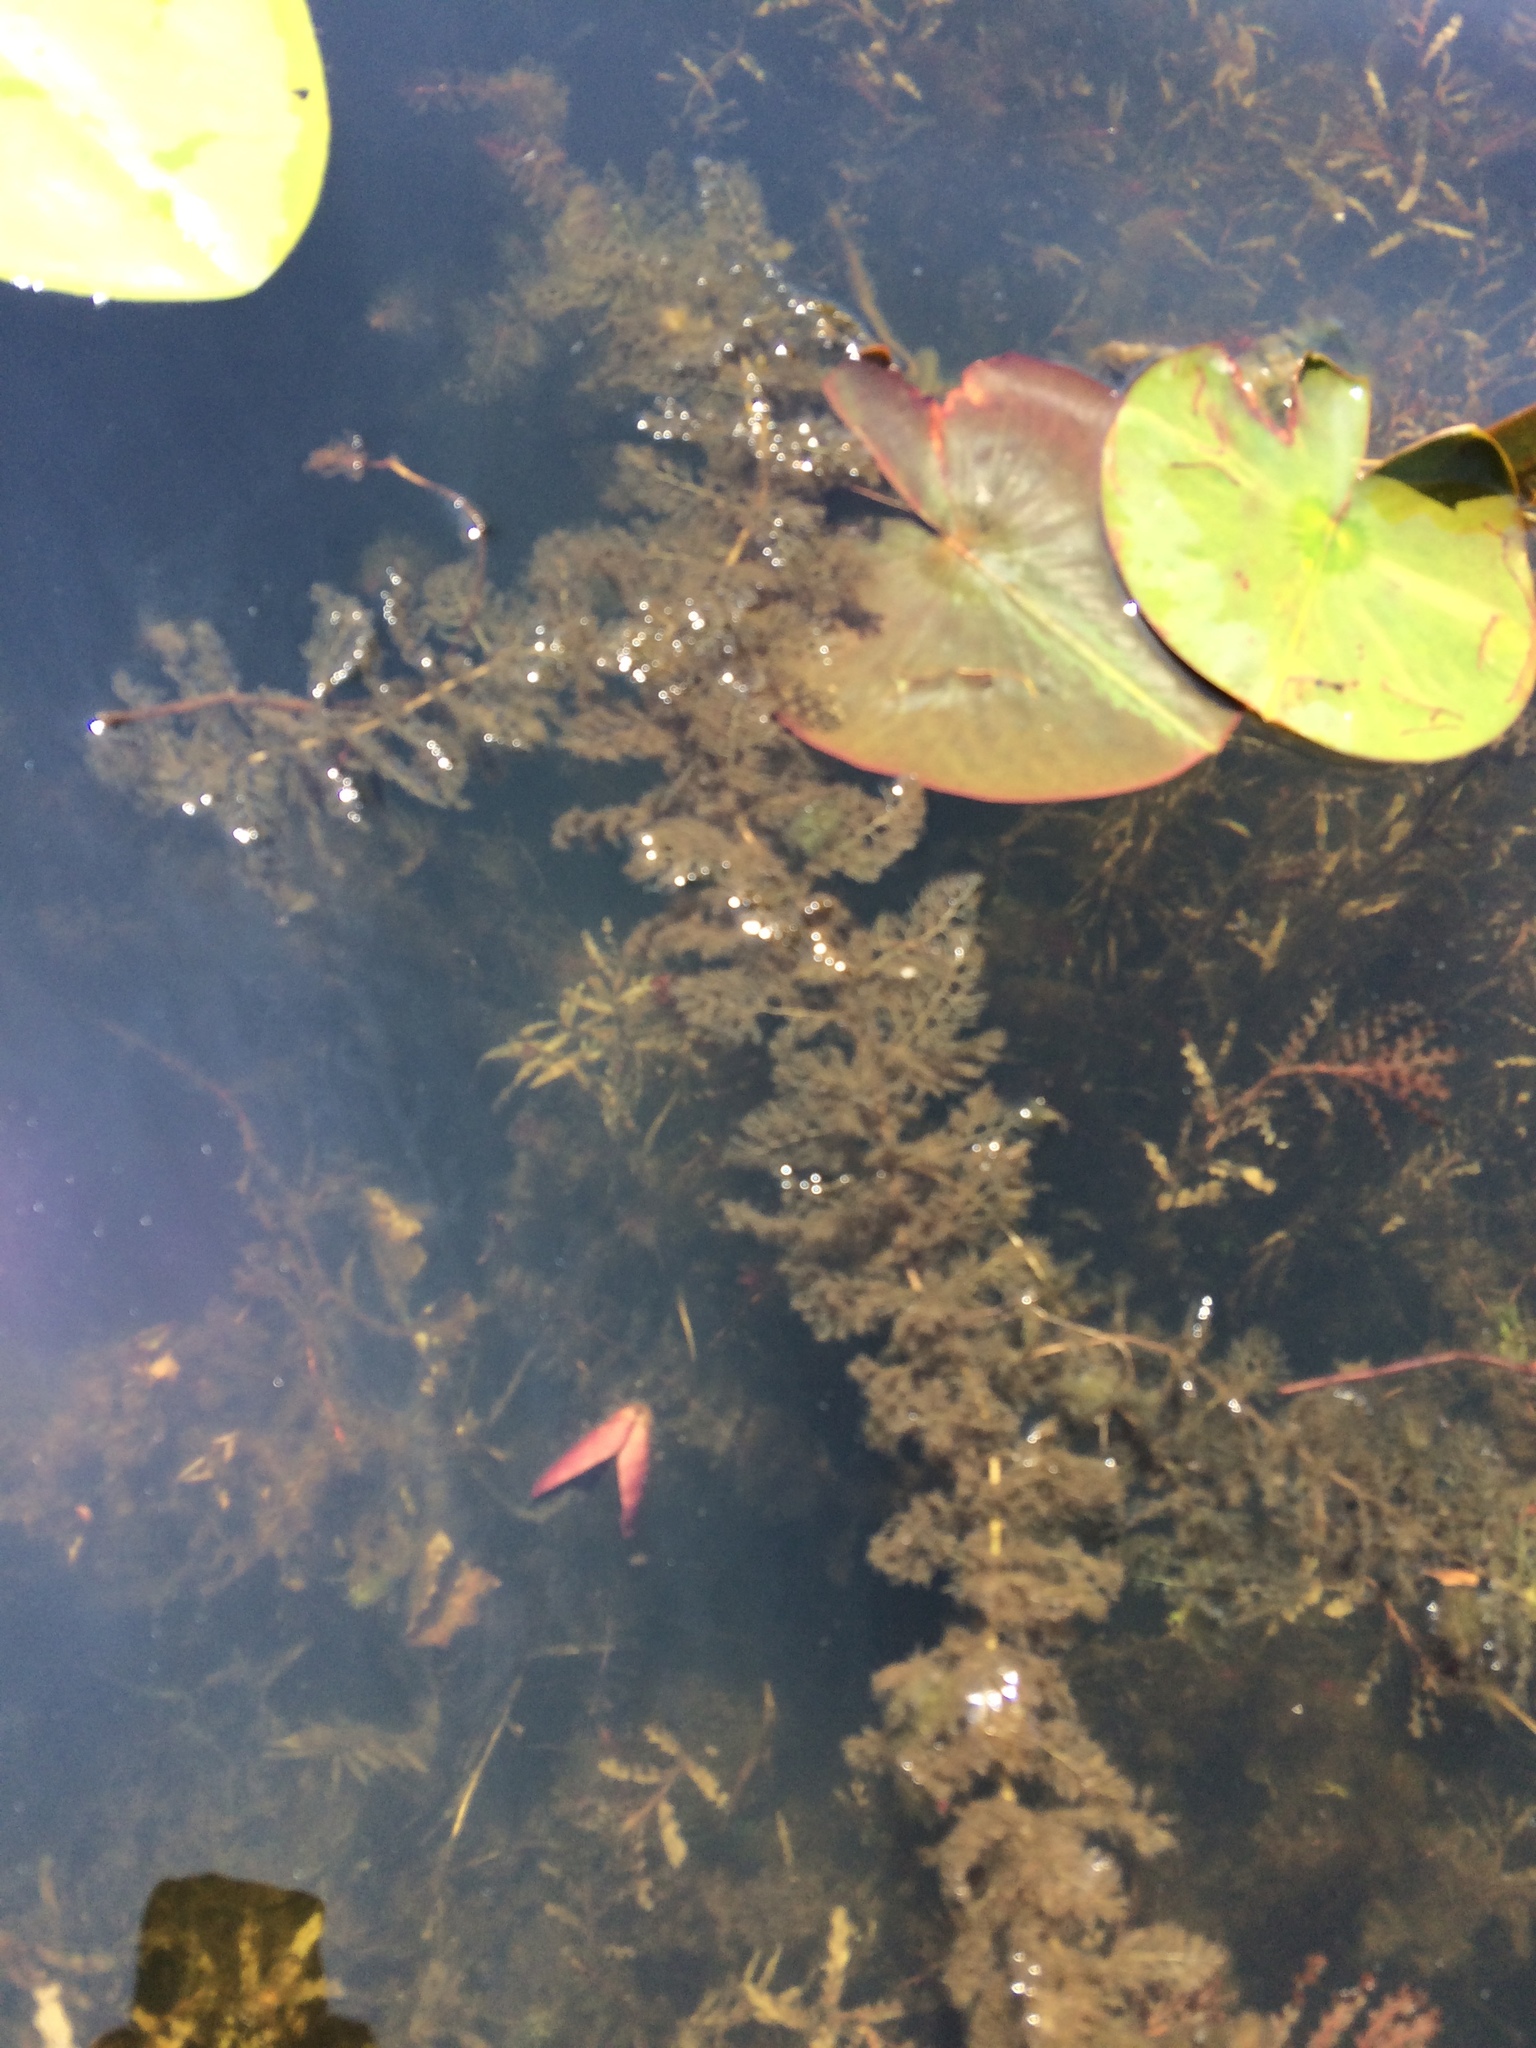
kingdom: Plantae
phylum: Tracheophyta
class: Magnoliopsida
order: Lamiales
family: Lentibulariaceae
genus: Utricularia
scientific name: Utricularia macrorhiza
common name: Common bladderwort
